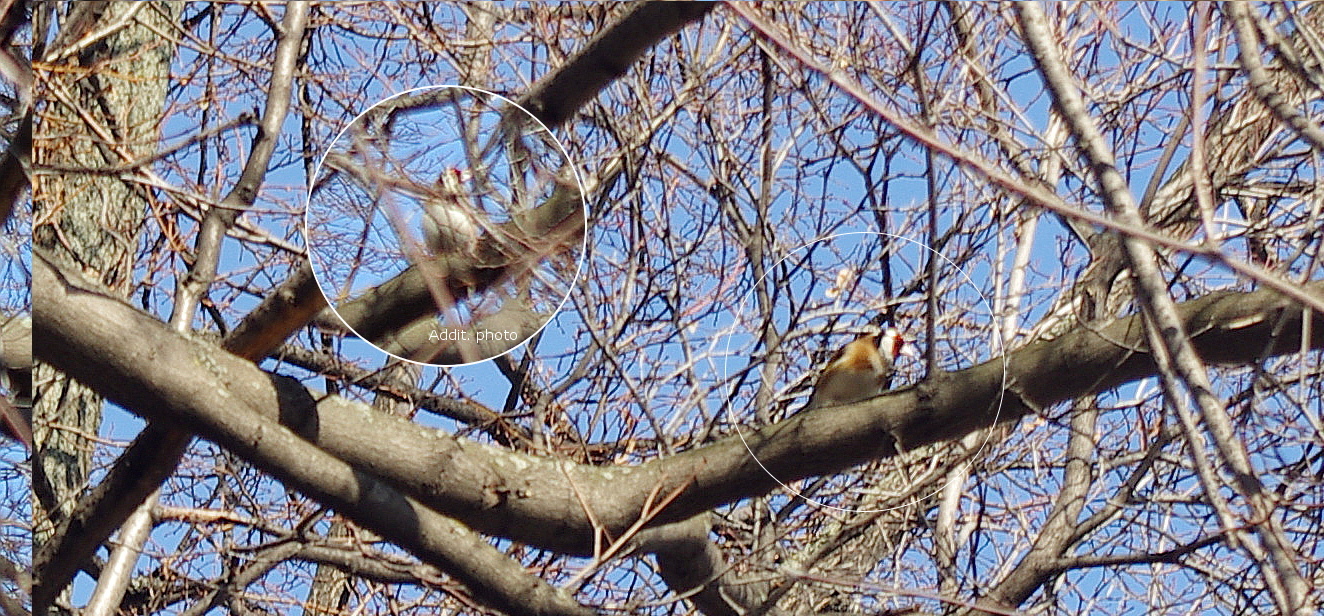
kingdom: Animalia
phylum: Chordata
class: Aves
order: Passeriformes
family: Fringillidae
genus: Carduelis
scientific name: Carduelis carduelis
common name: European goldfinch
